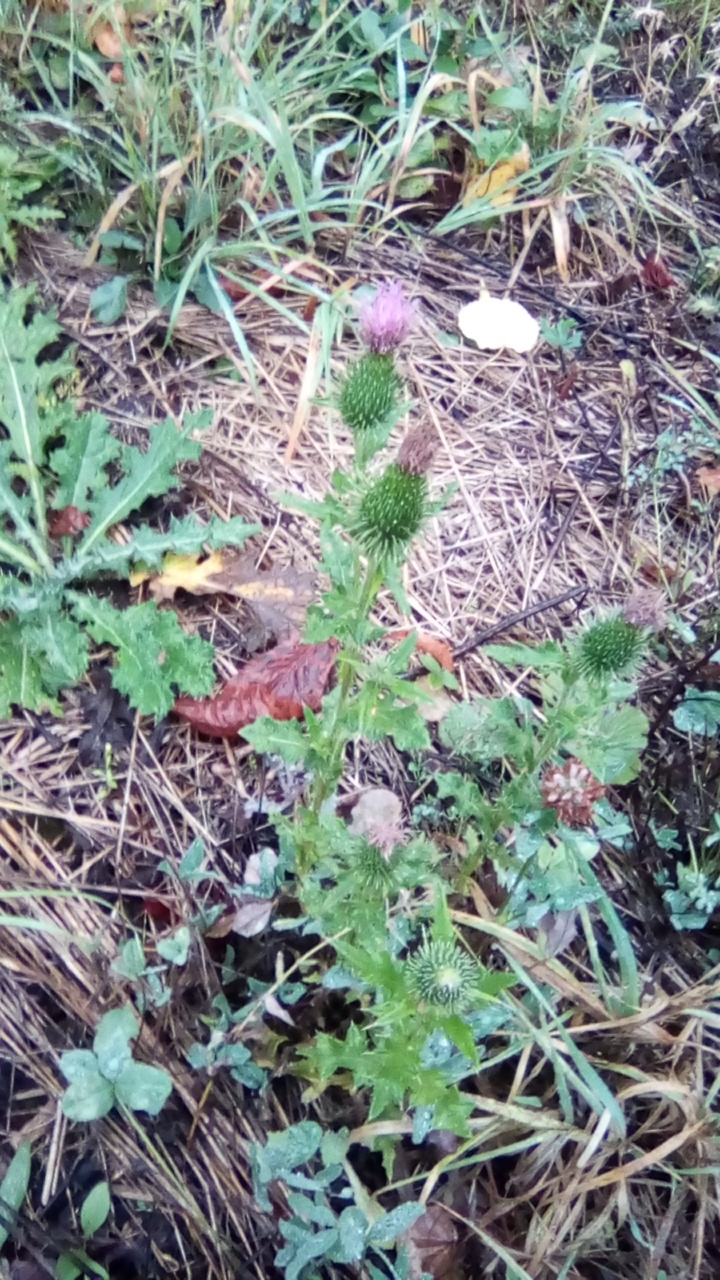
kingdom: Plantae
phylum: Tracheophyta
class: Magnoliopsida
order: Asterales
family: Asteraceae
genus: Cirsium
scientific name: Cirsium vulgare
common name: Bull thistle
